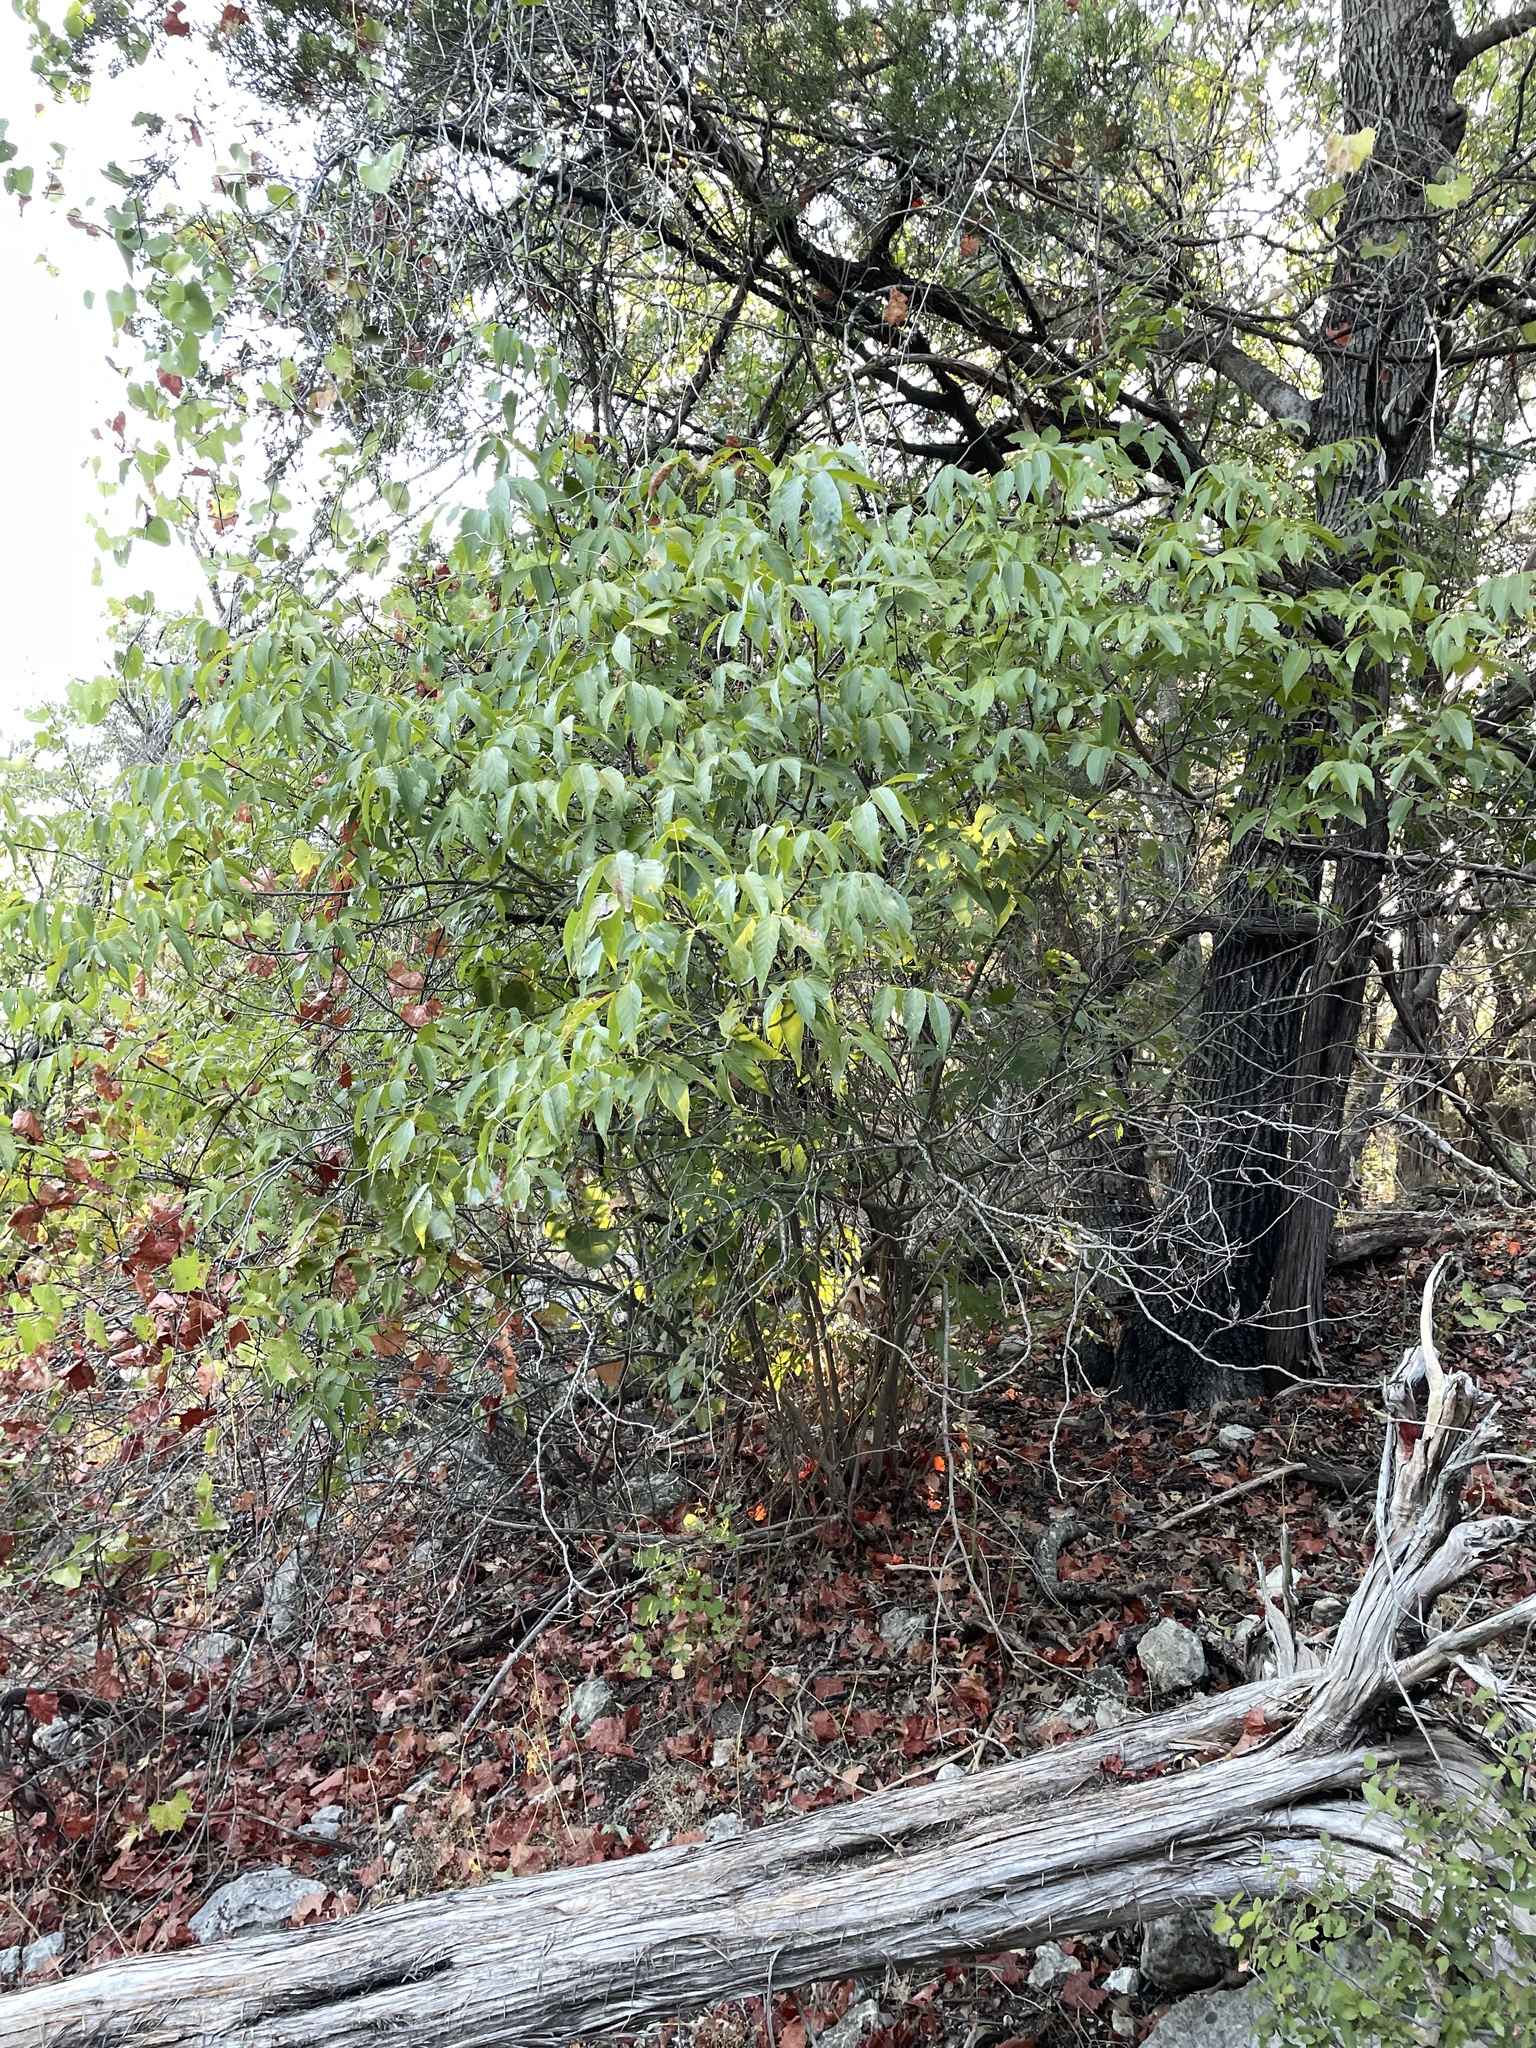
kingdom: Plantae
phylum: Tracheophyta
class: Magnoliopsida
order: Sapindales
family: Sapindaceae
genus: Ungnadia
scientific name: Ungnadia speciosa
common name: Texas-buckeye
